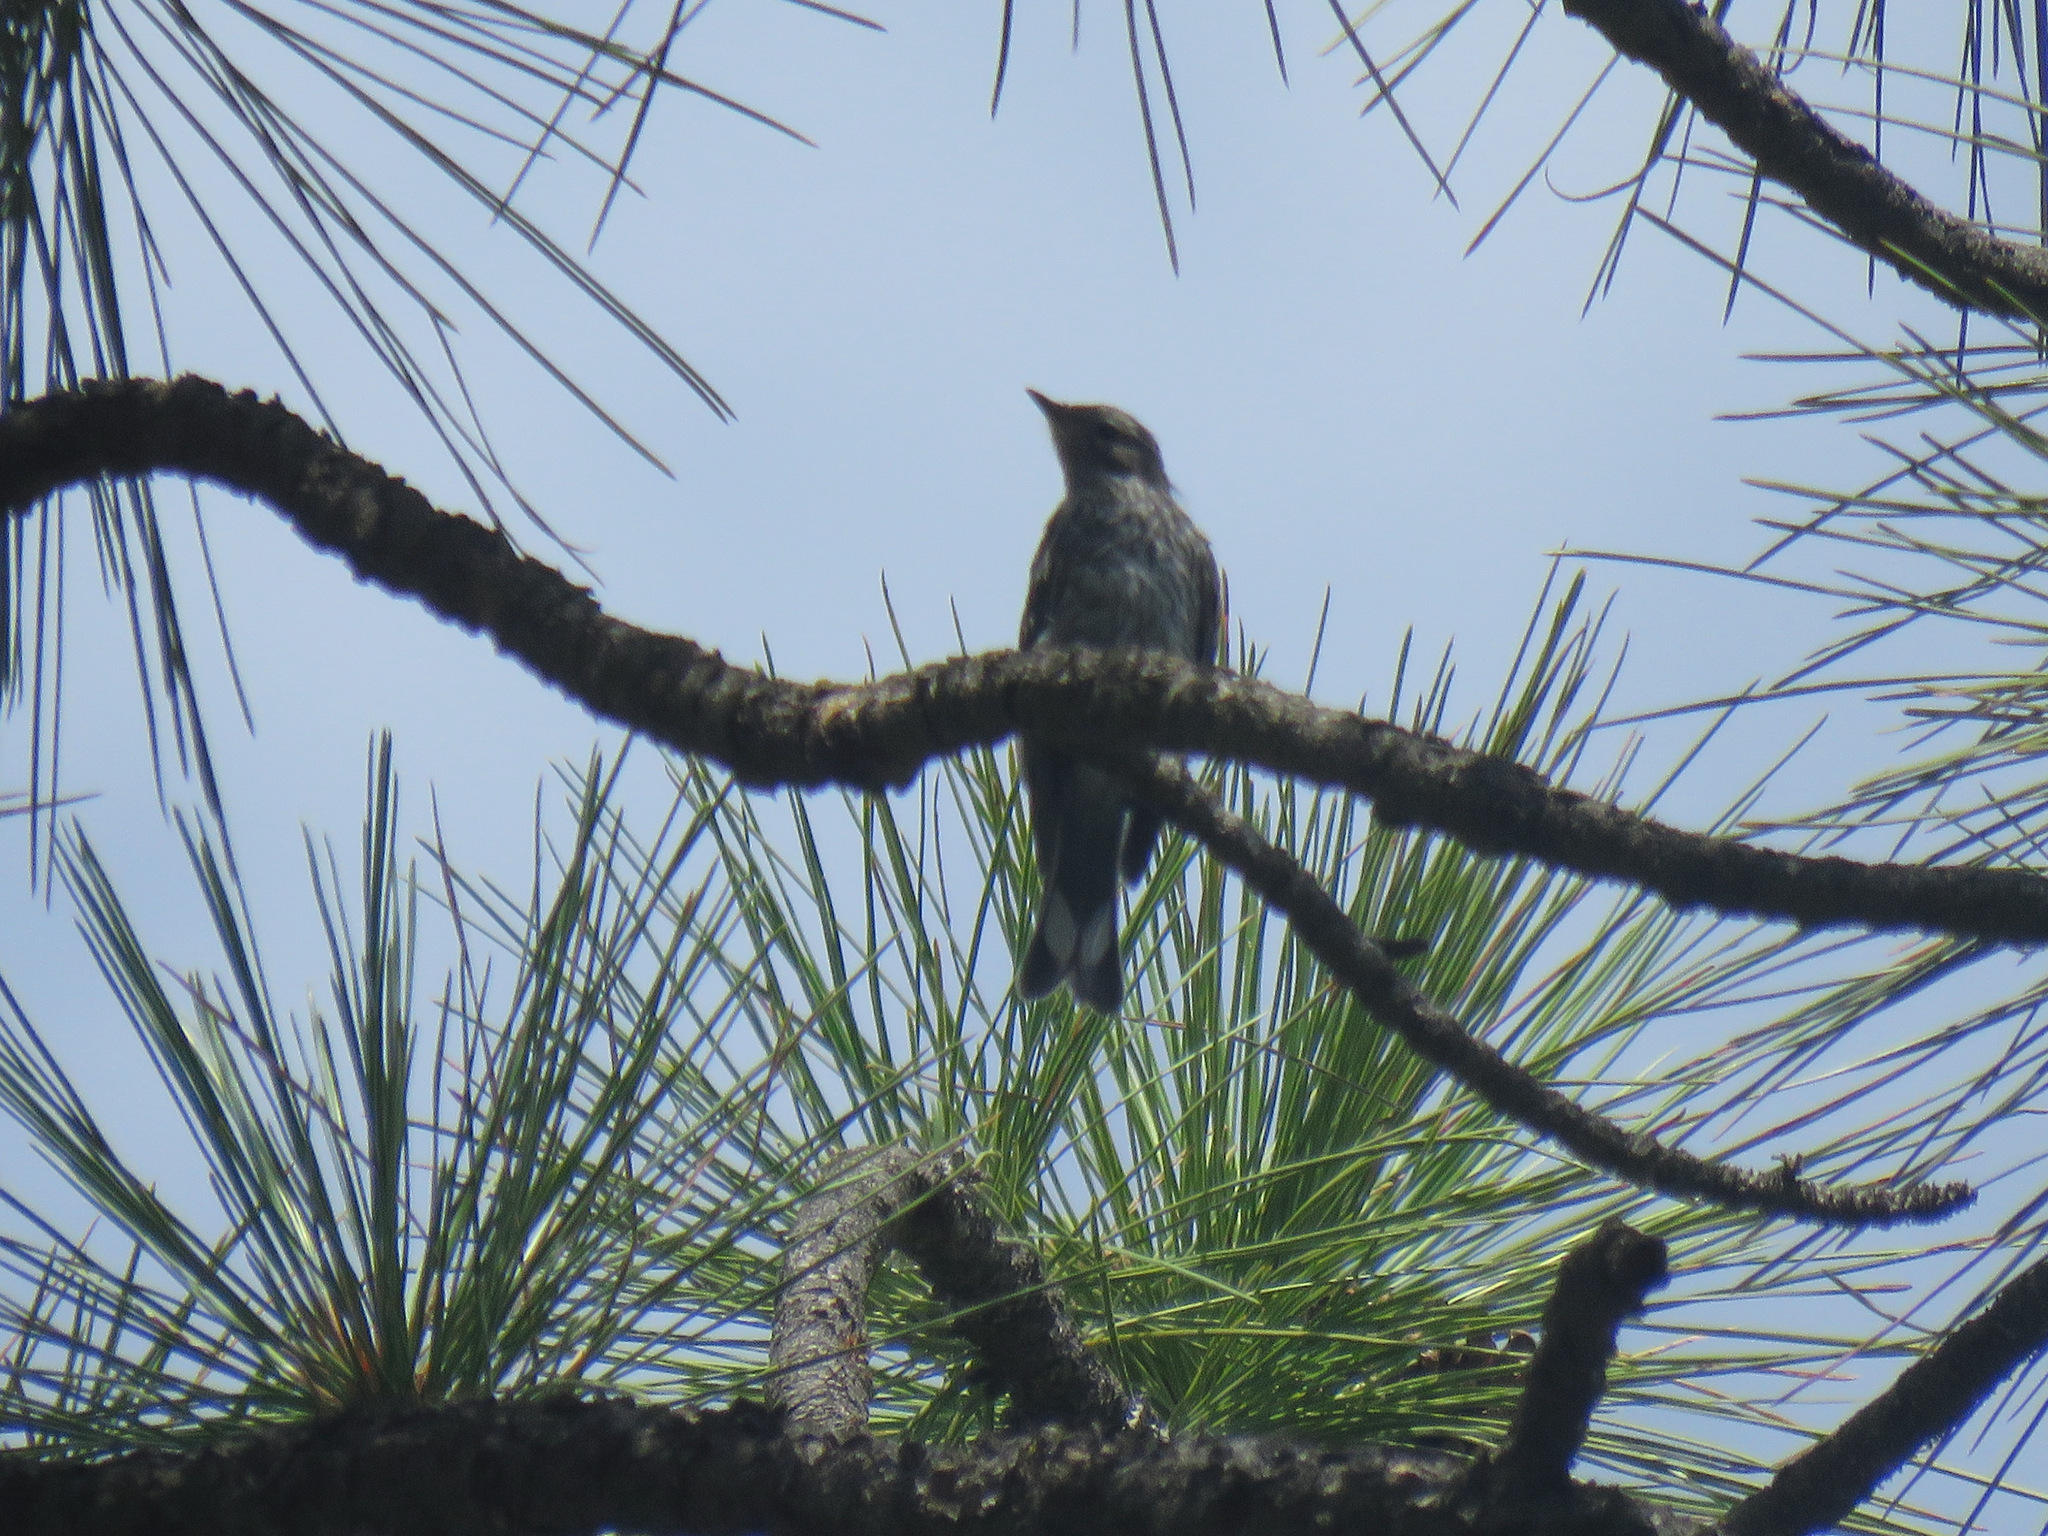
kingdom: Animalia
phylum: Chordata
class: Aves
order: Passeriformes
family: Parulidae
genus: Setophaga
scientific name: Setophaga coronata
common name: Myrtle warbler
